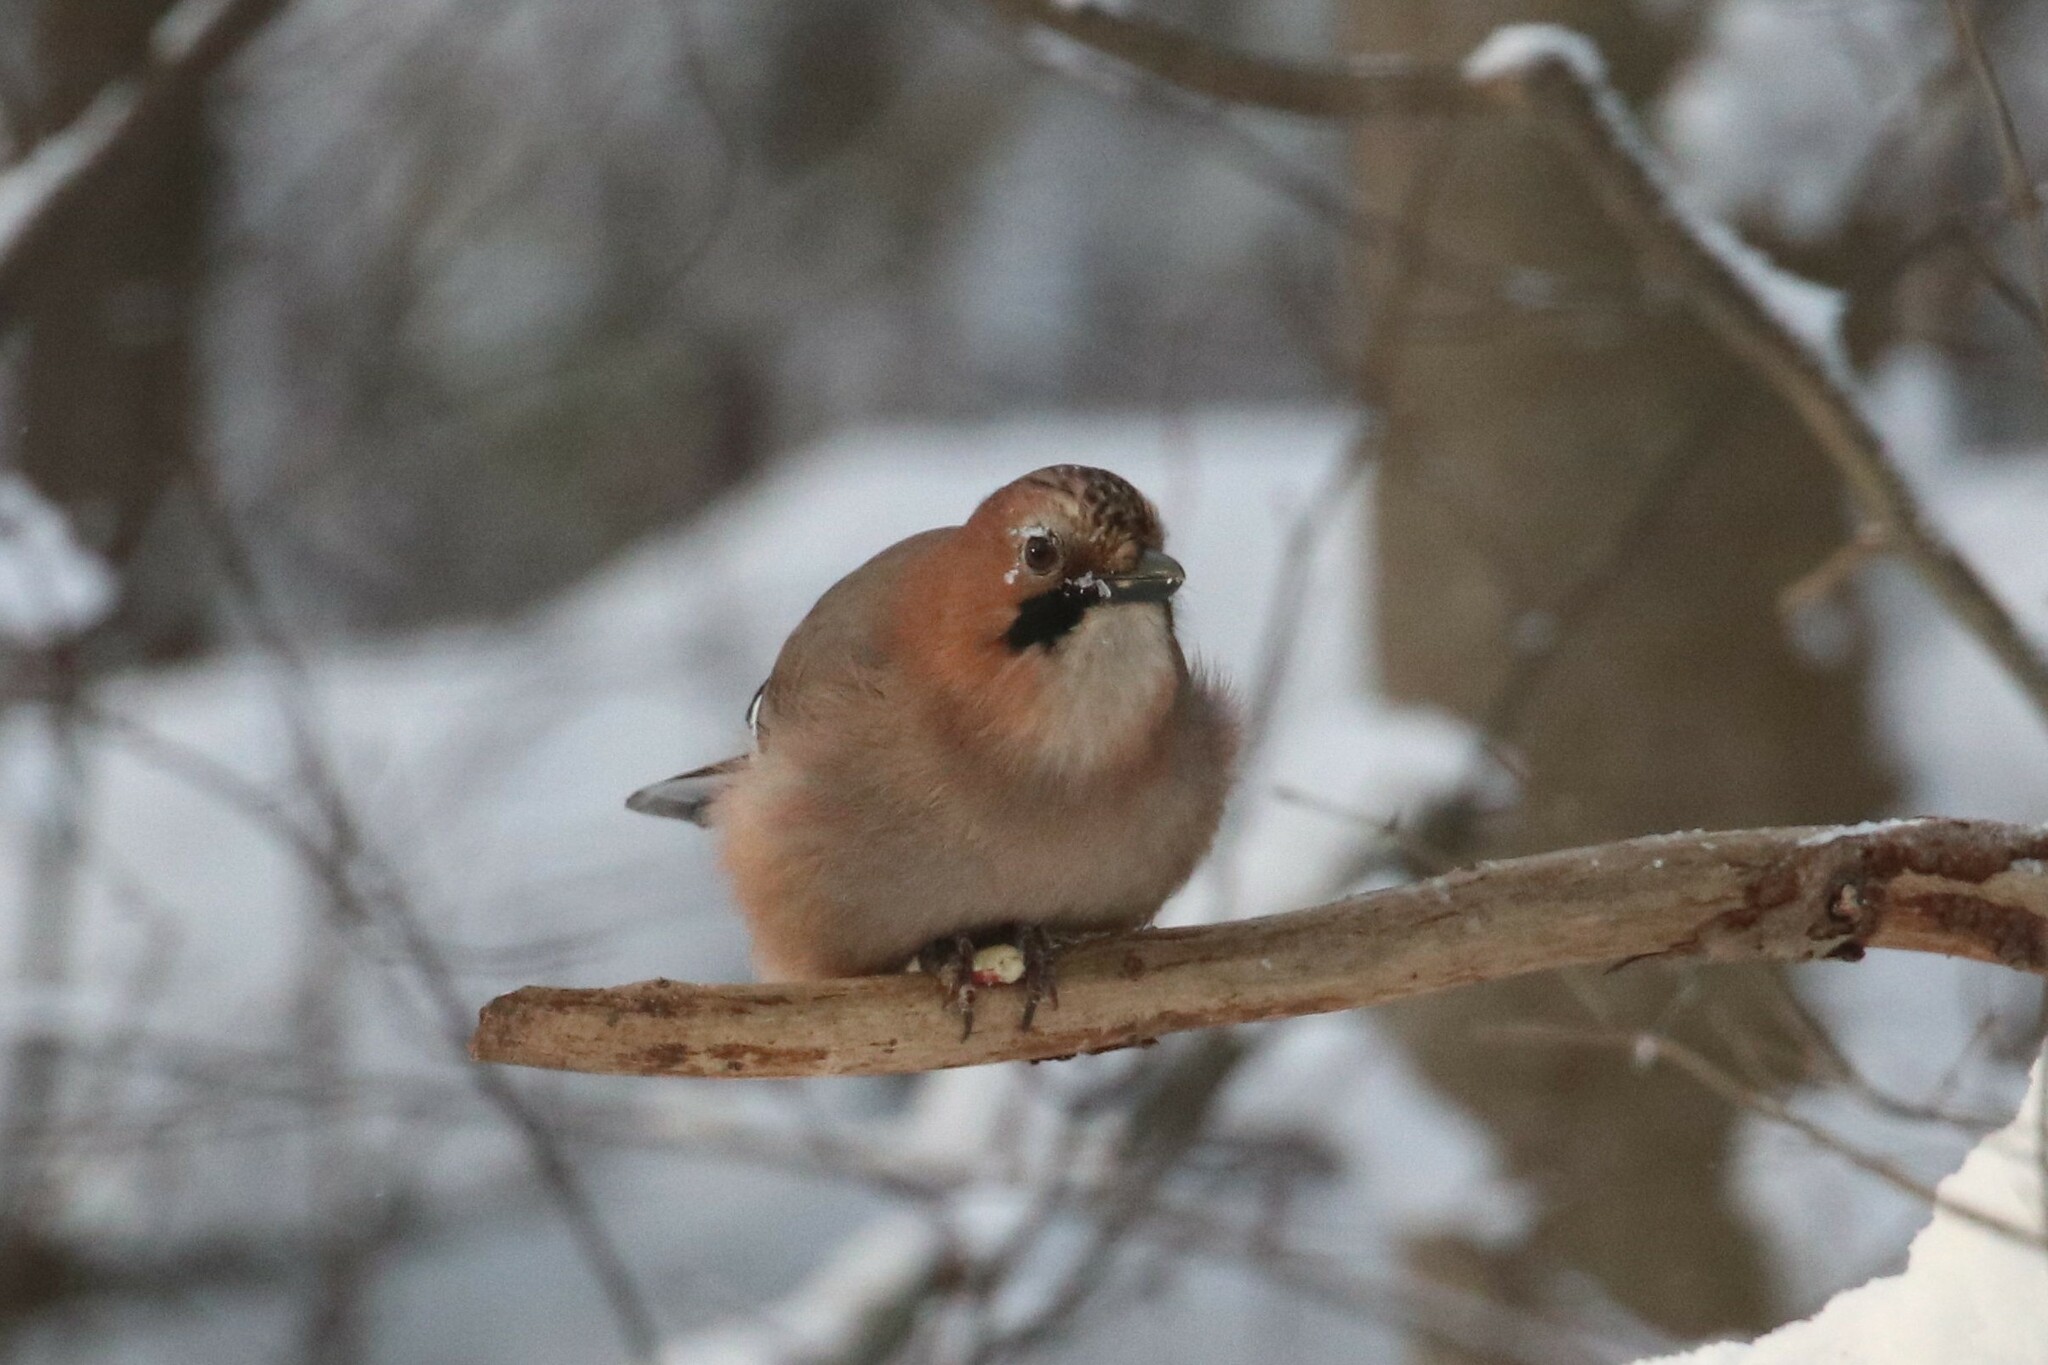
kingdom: Animalia
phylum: Chordata
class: Aves
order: Passeriformes
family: Corvidae
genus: Garrulus
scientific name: Garrulus glandarius
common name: Eurasian jay
